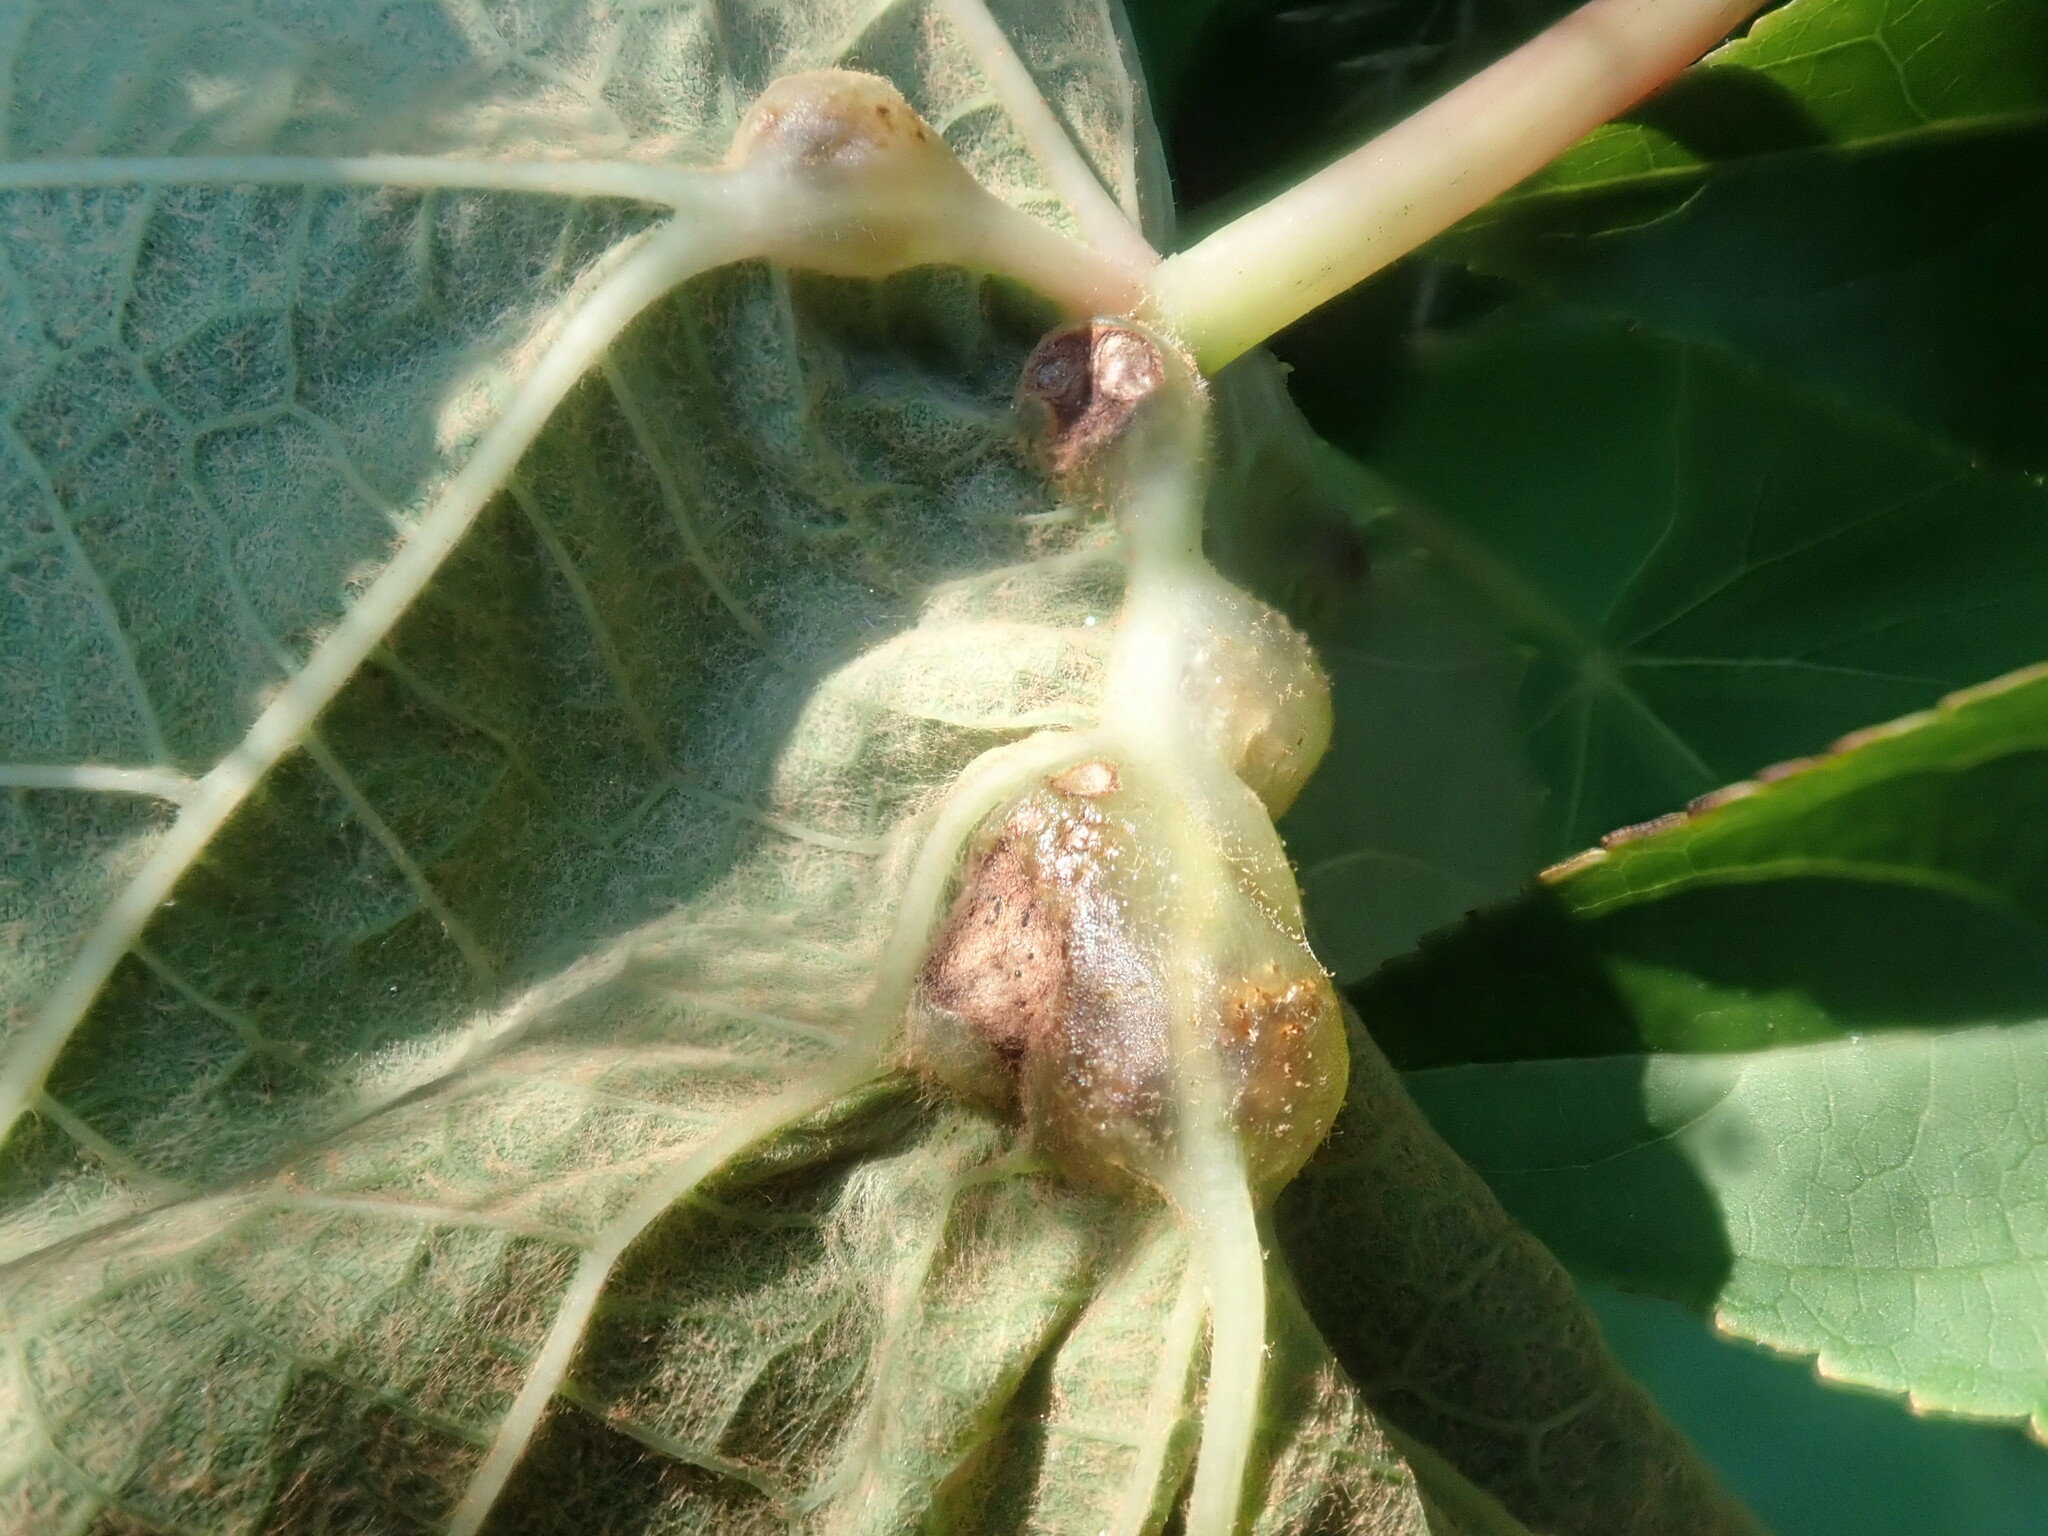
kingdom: Animalia
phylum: Arthropoda
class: Insecta
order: Diptera
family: Cecidomyiidae
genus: Vitisiella
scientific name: Vitisiella brevicauda
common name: Grape tumid gallmaker midge
